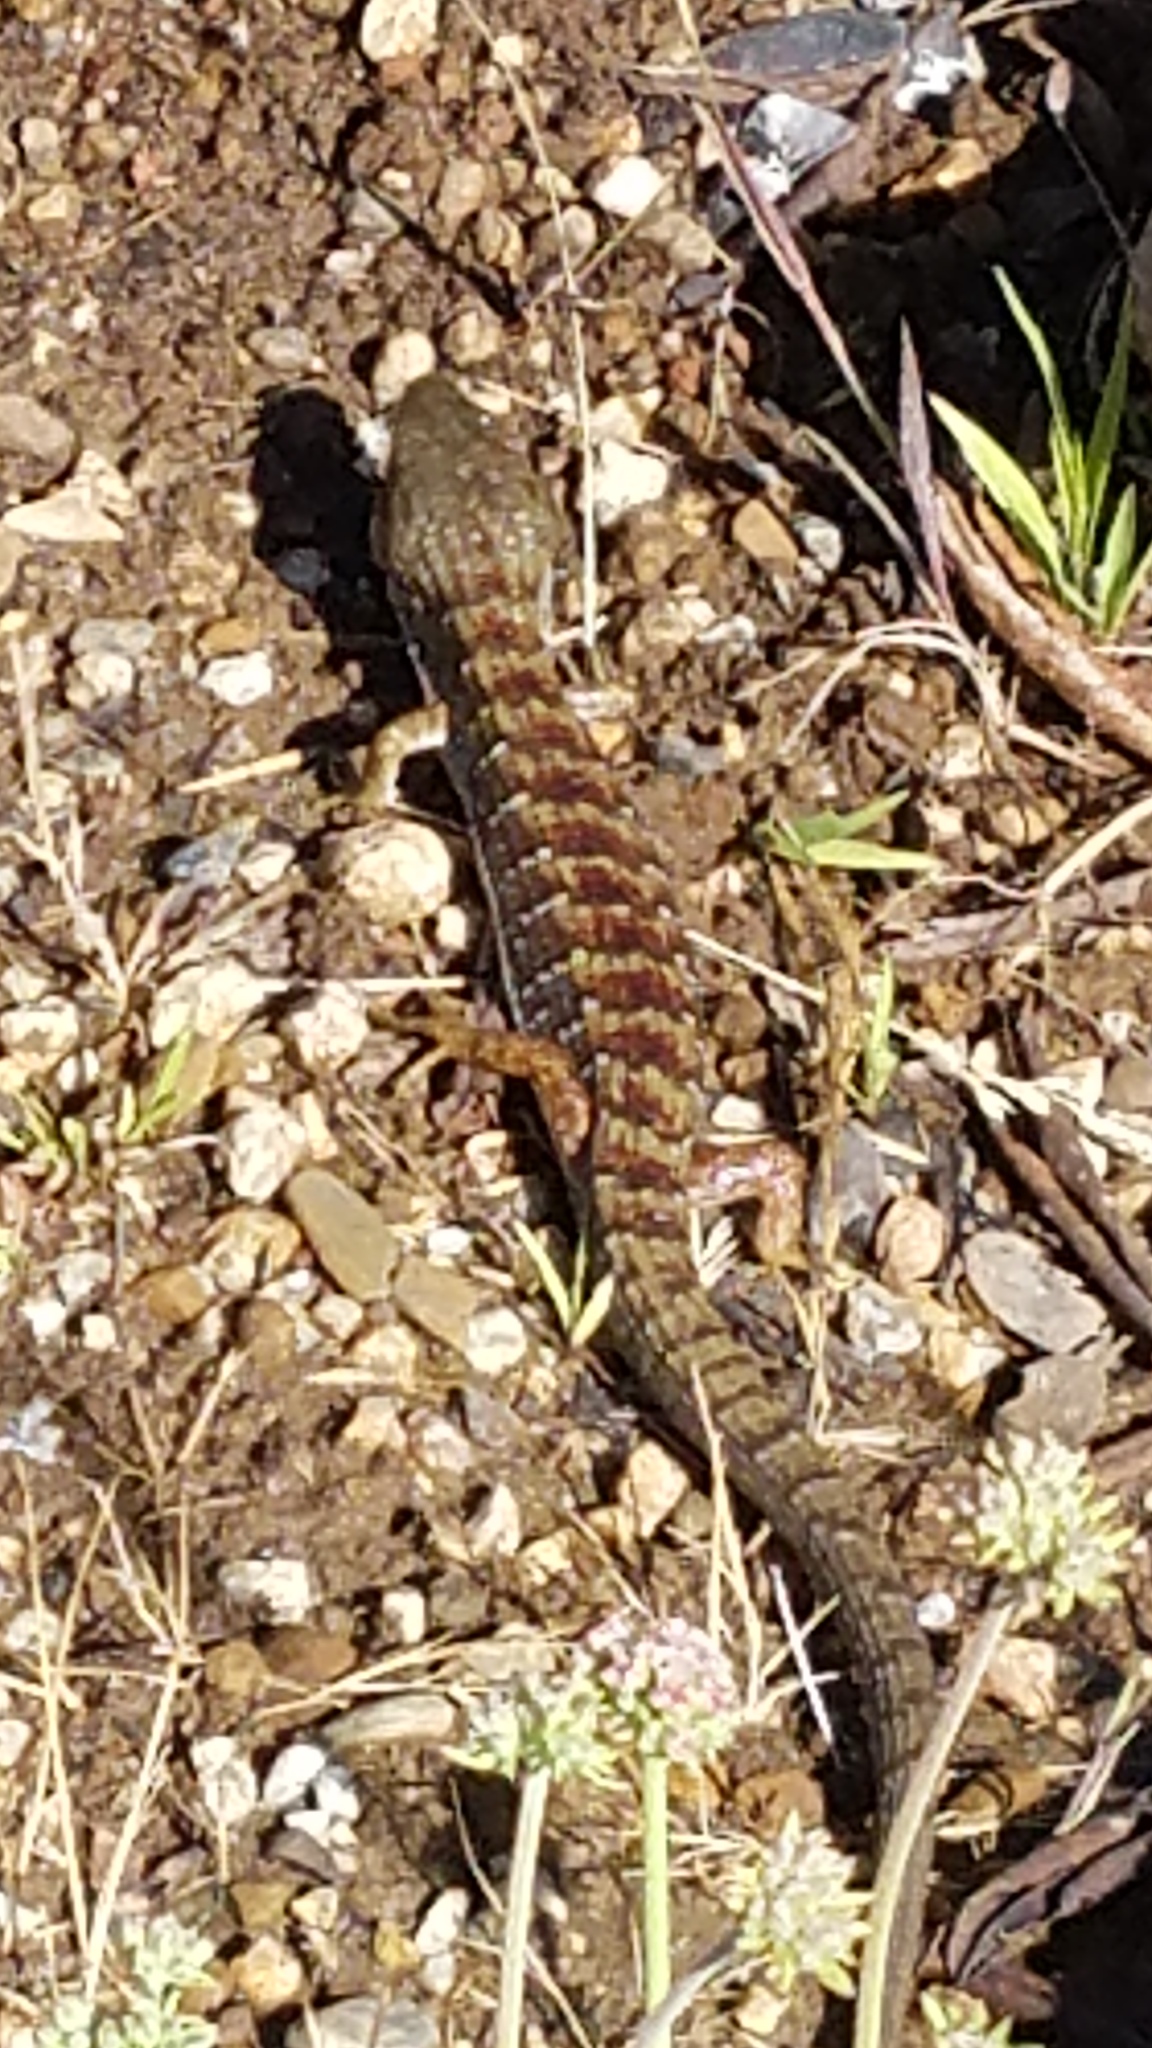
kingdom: Animalia
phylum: Chordata
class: Squamata
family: Anguidae
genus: Elgaria
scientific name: Elgaria multicarinata
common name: Southern alligator lizard
